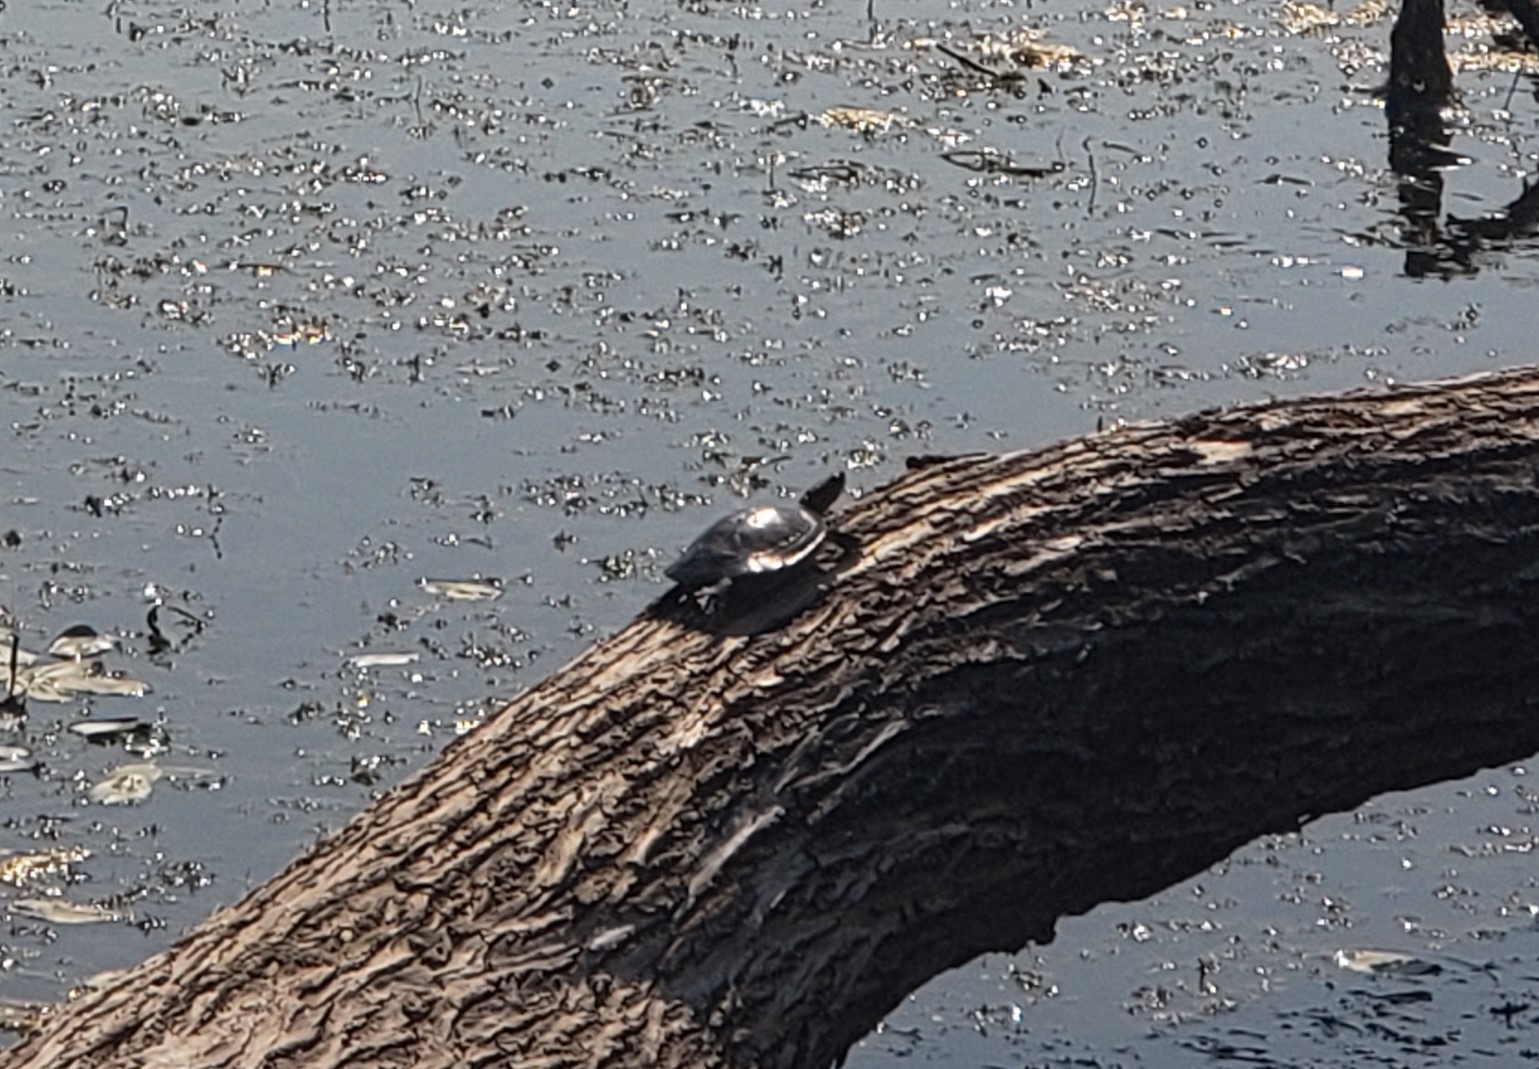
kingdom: Animalia
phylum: Chordata
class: Testudines
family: Emydidae
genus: Chrysemys
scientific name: Chrysemys picta
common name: Painted turtle
